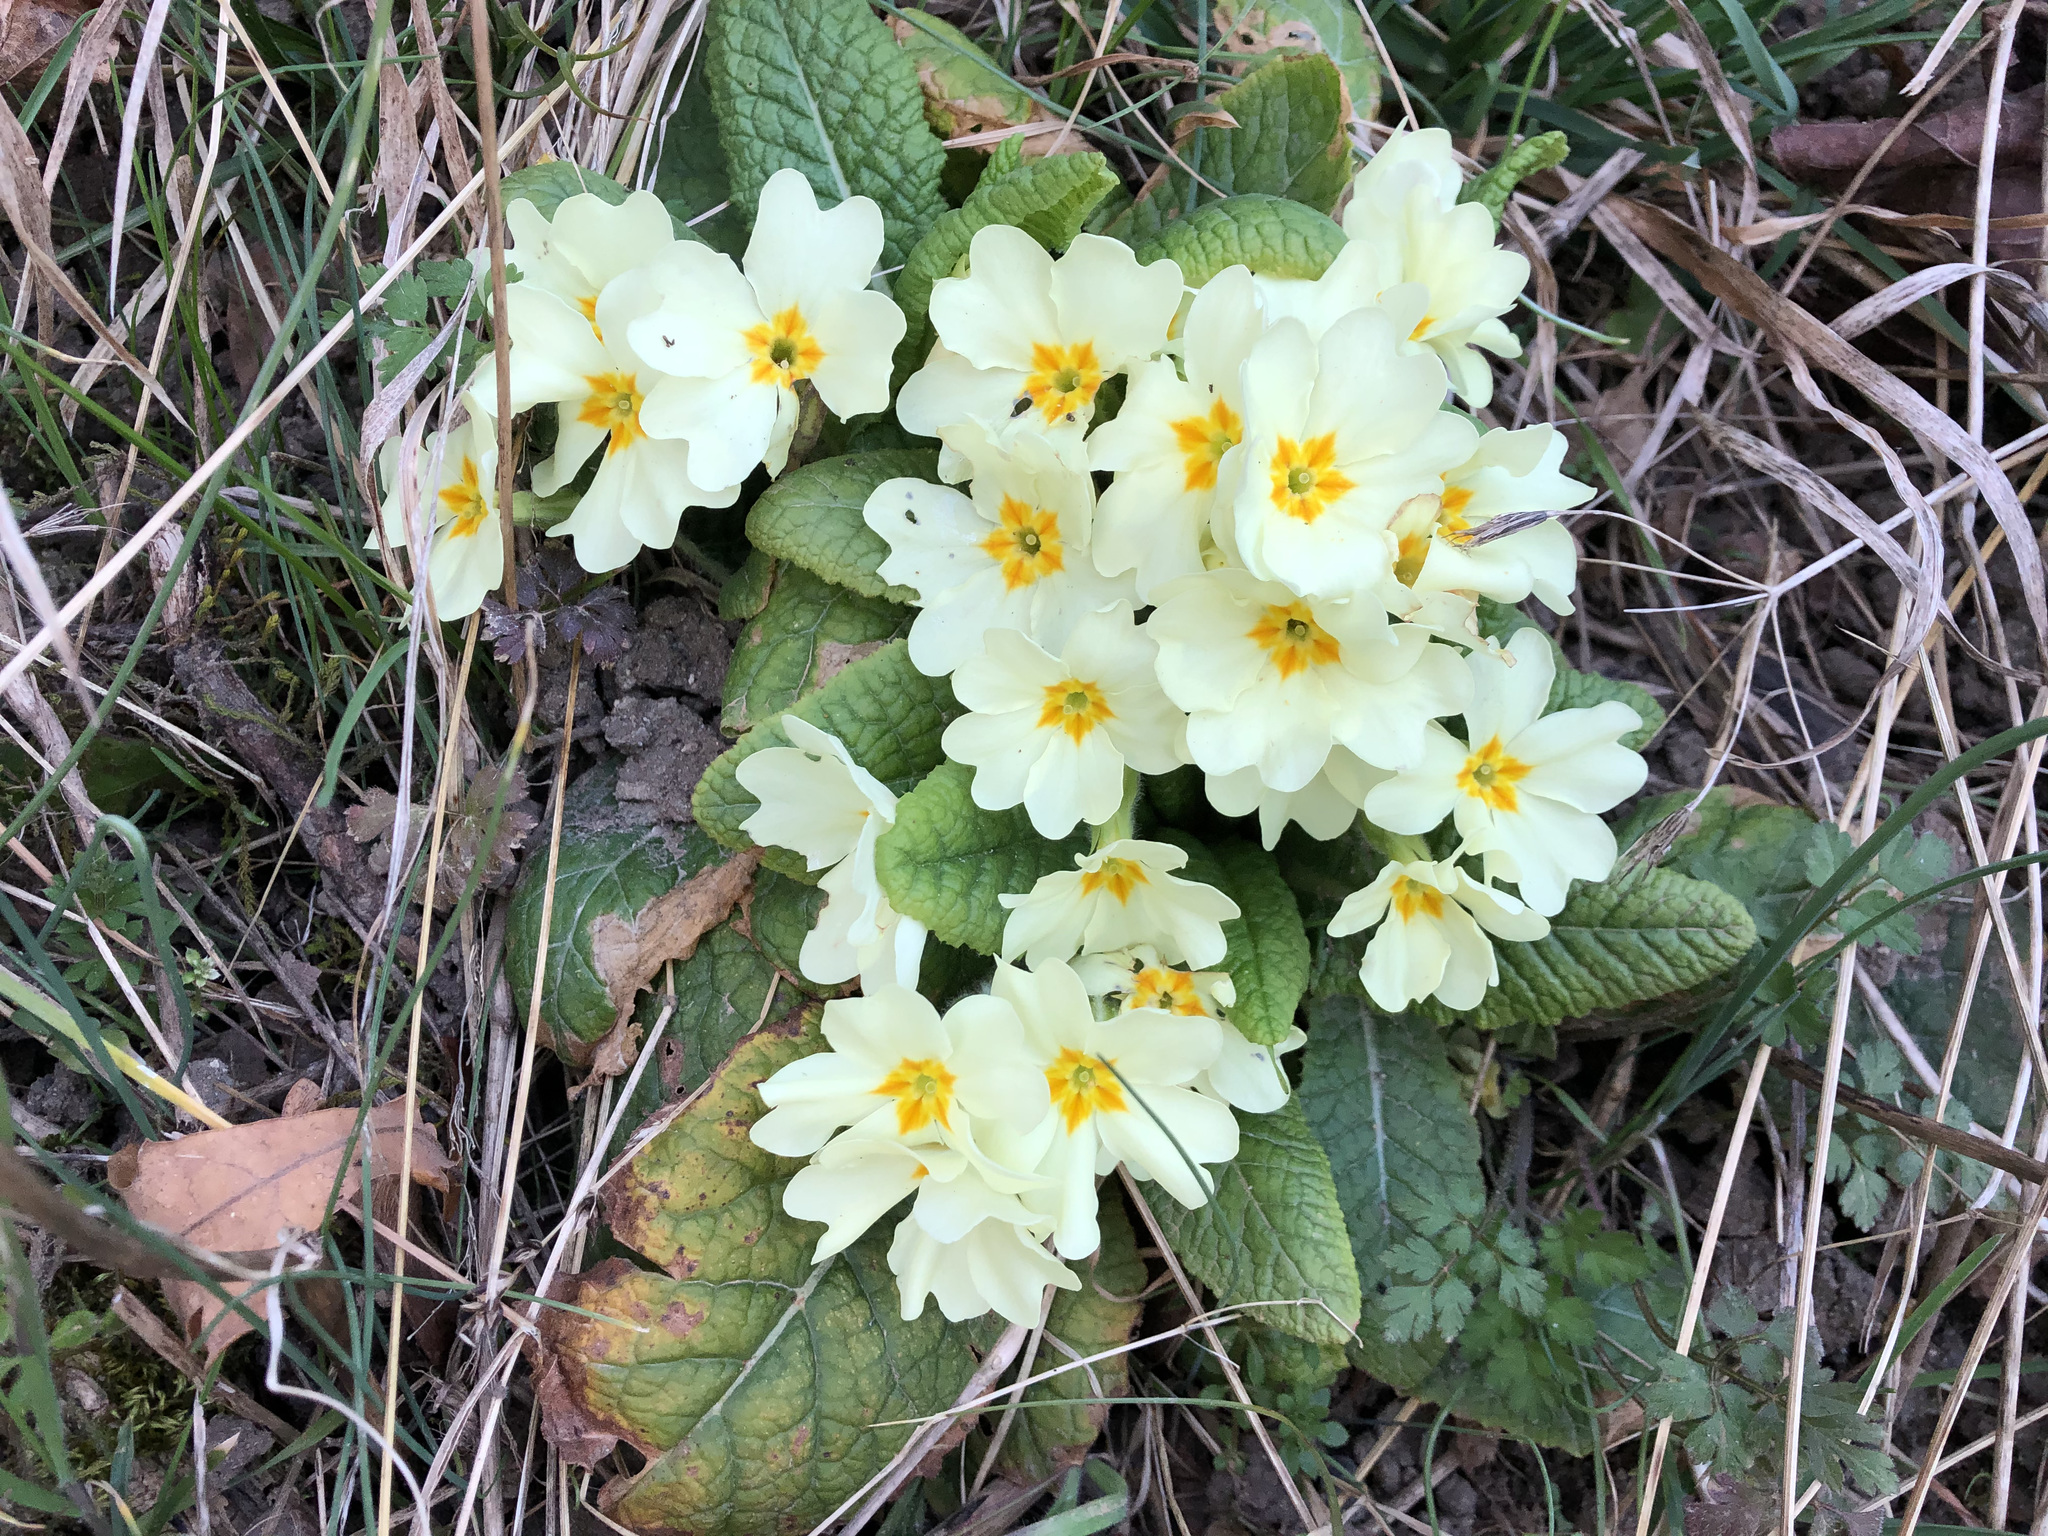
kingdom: Plantae
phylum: Tracheophyta
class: Magnoliopsida
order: Ericales
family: Primulaceae
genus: Primula
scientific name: Primula vulgaris
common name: Primrose
